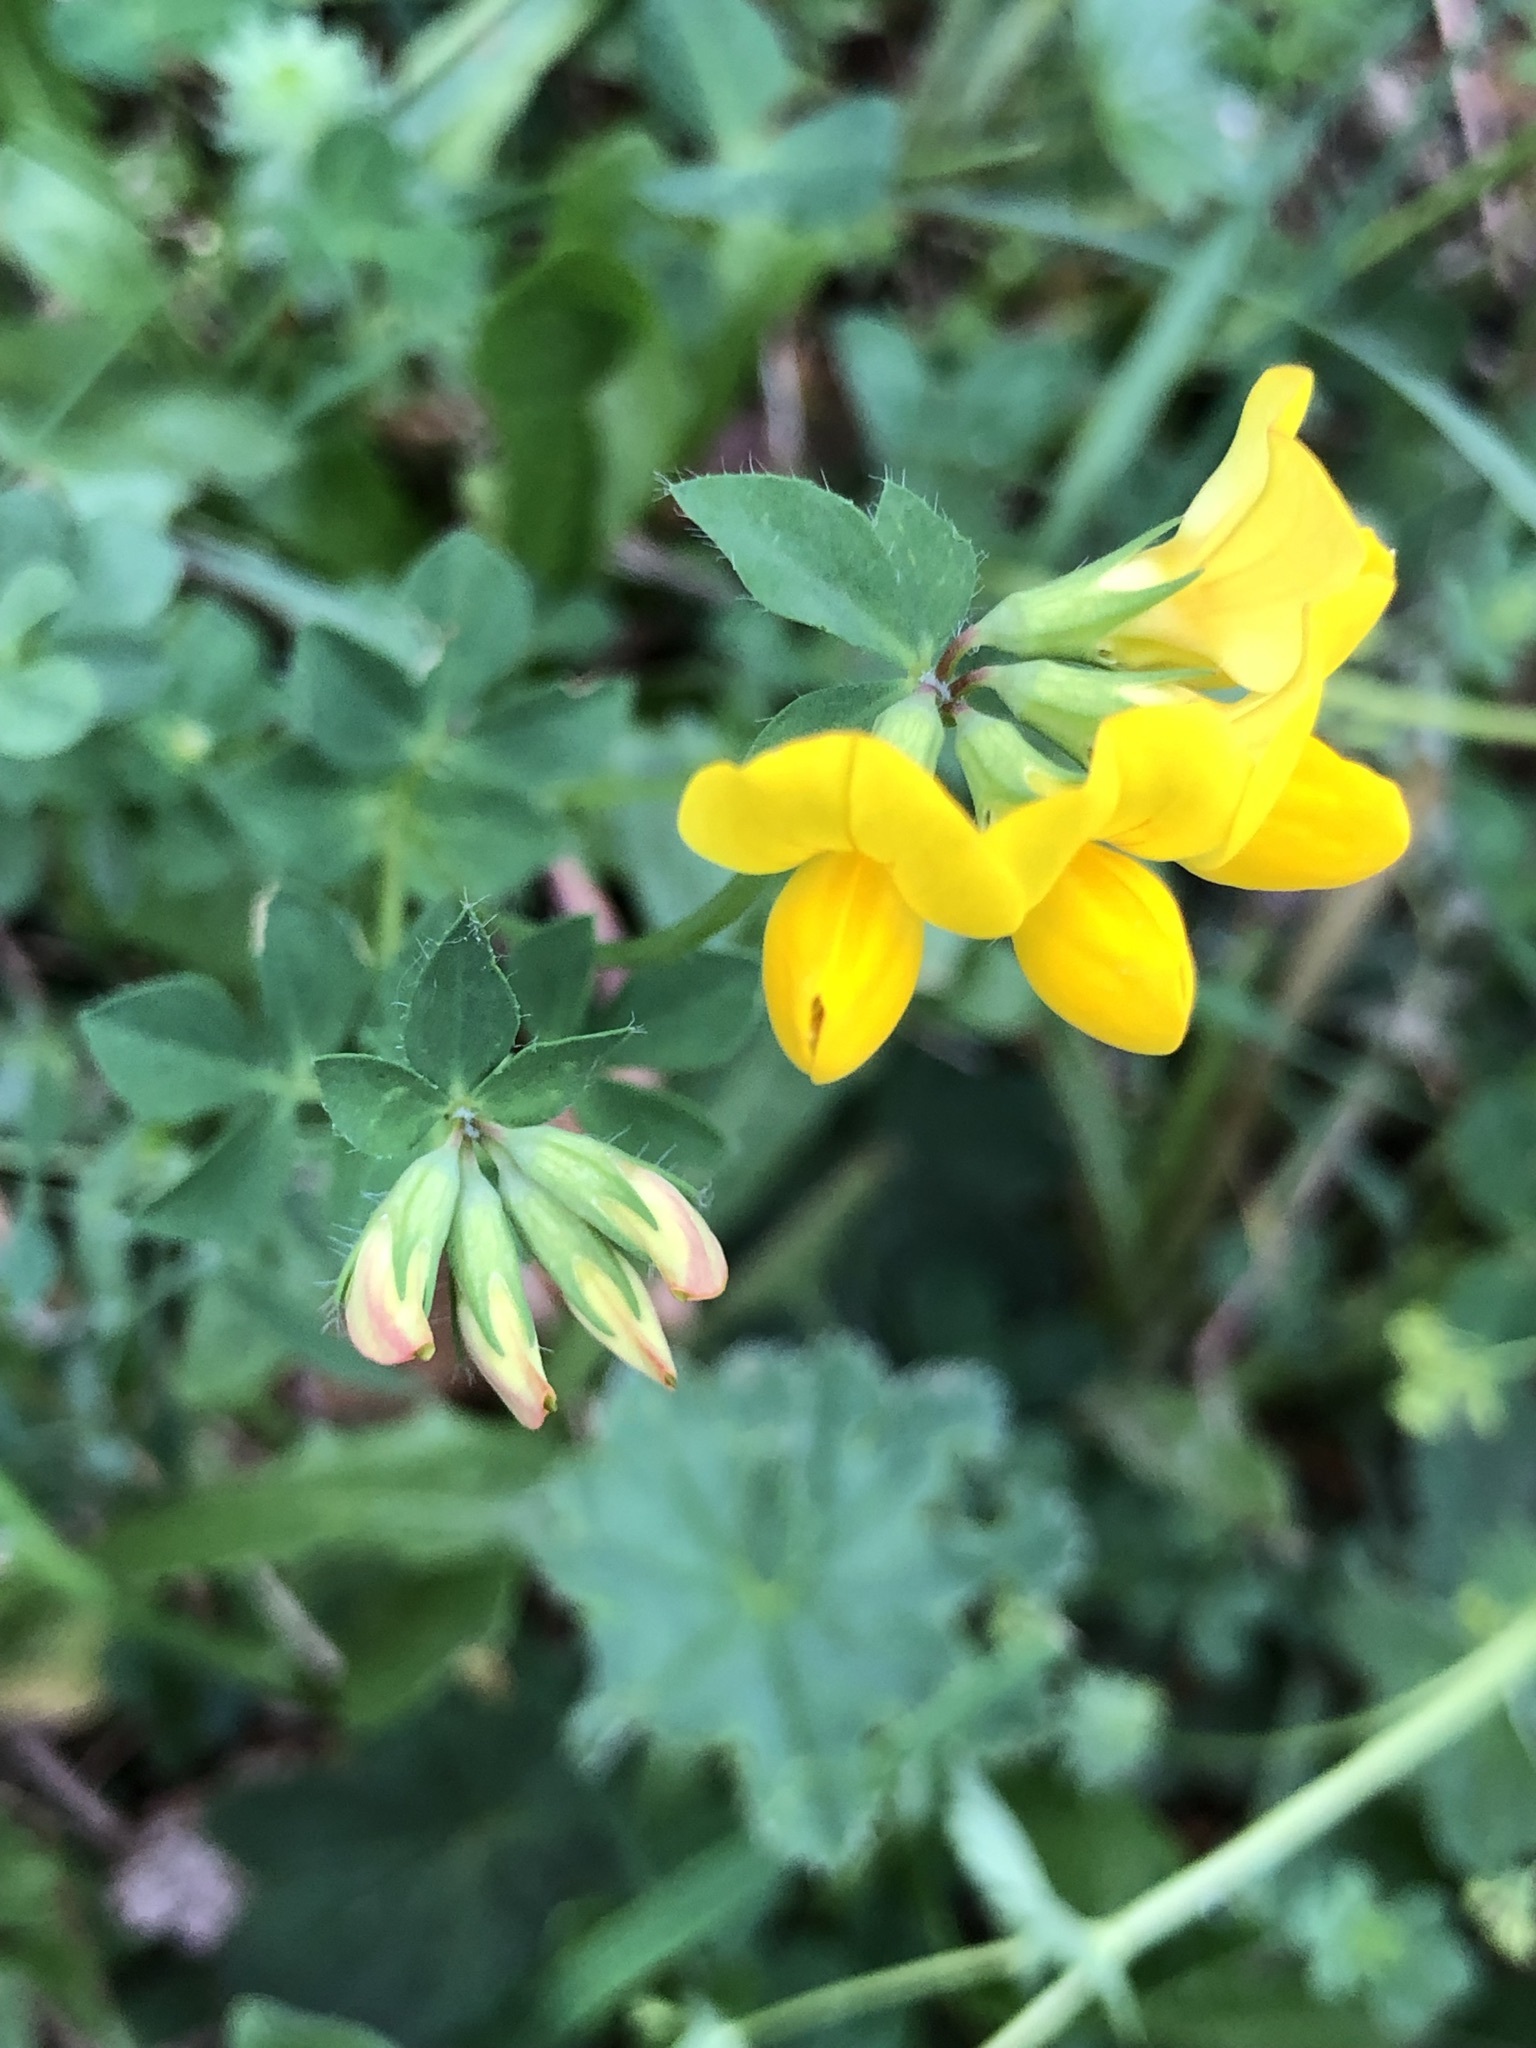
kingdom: Plantae
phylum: Tracheophyta
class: Magnoliopsida
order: Fabales
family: Fabaceae
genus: Lotus
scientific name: Lotus corniculatus
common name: Common bird's-foot-trefoil
